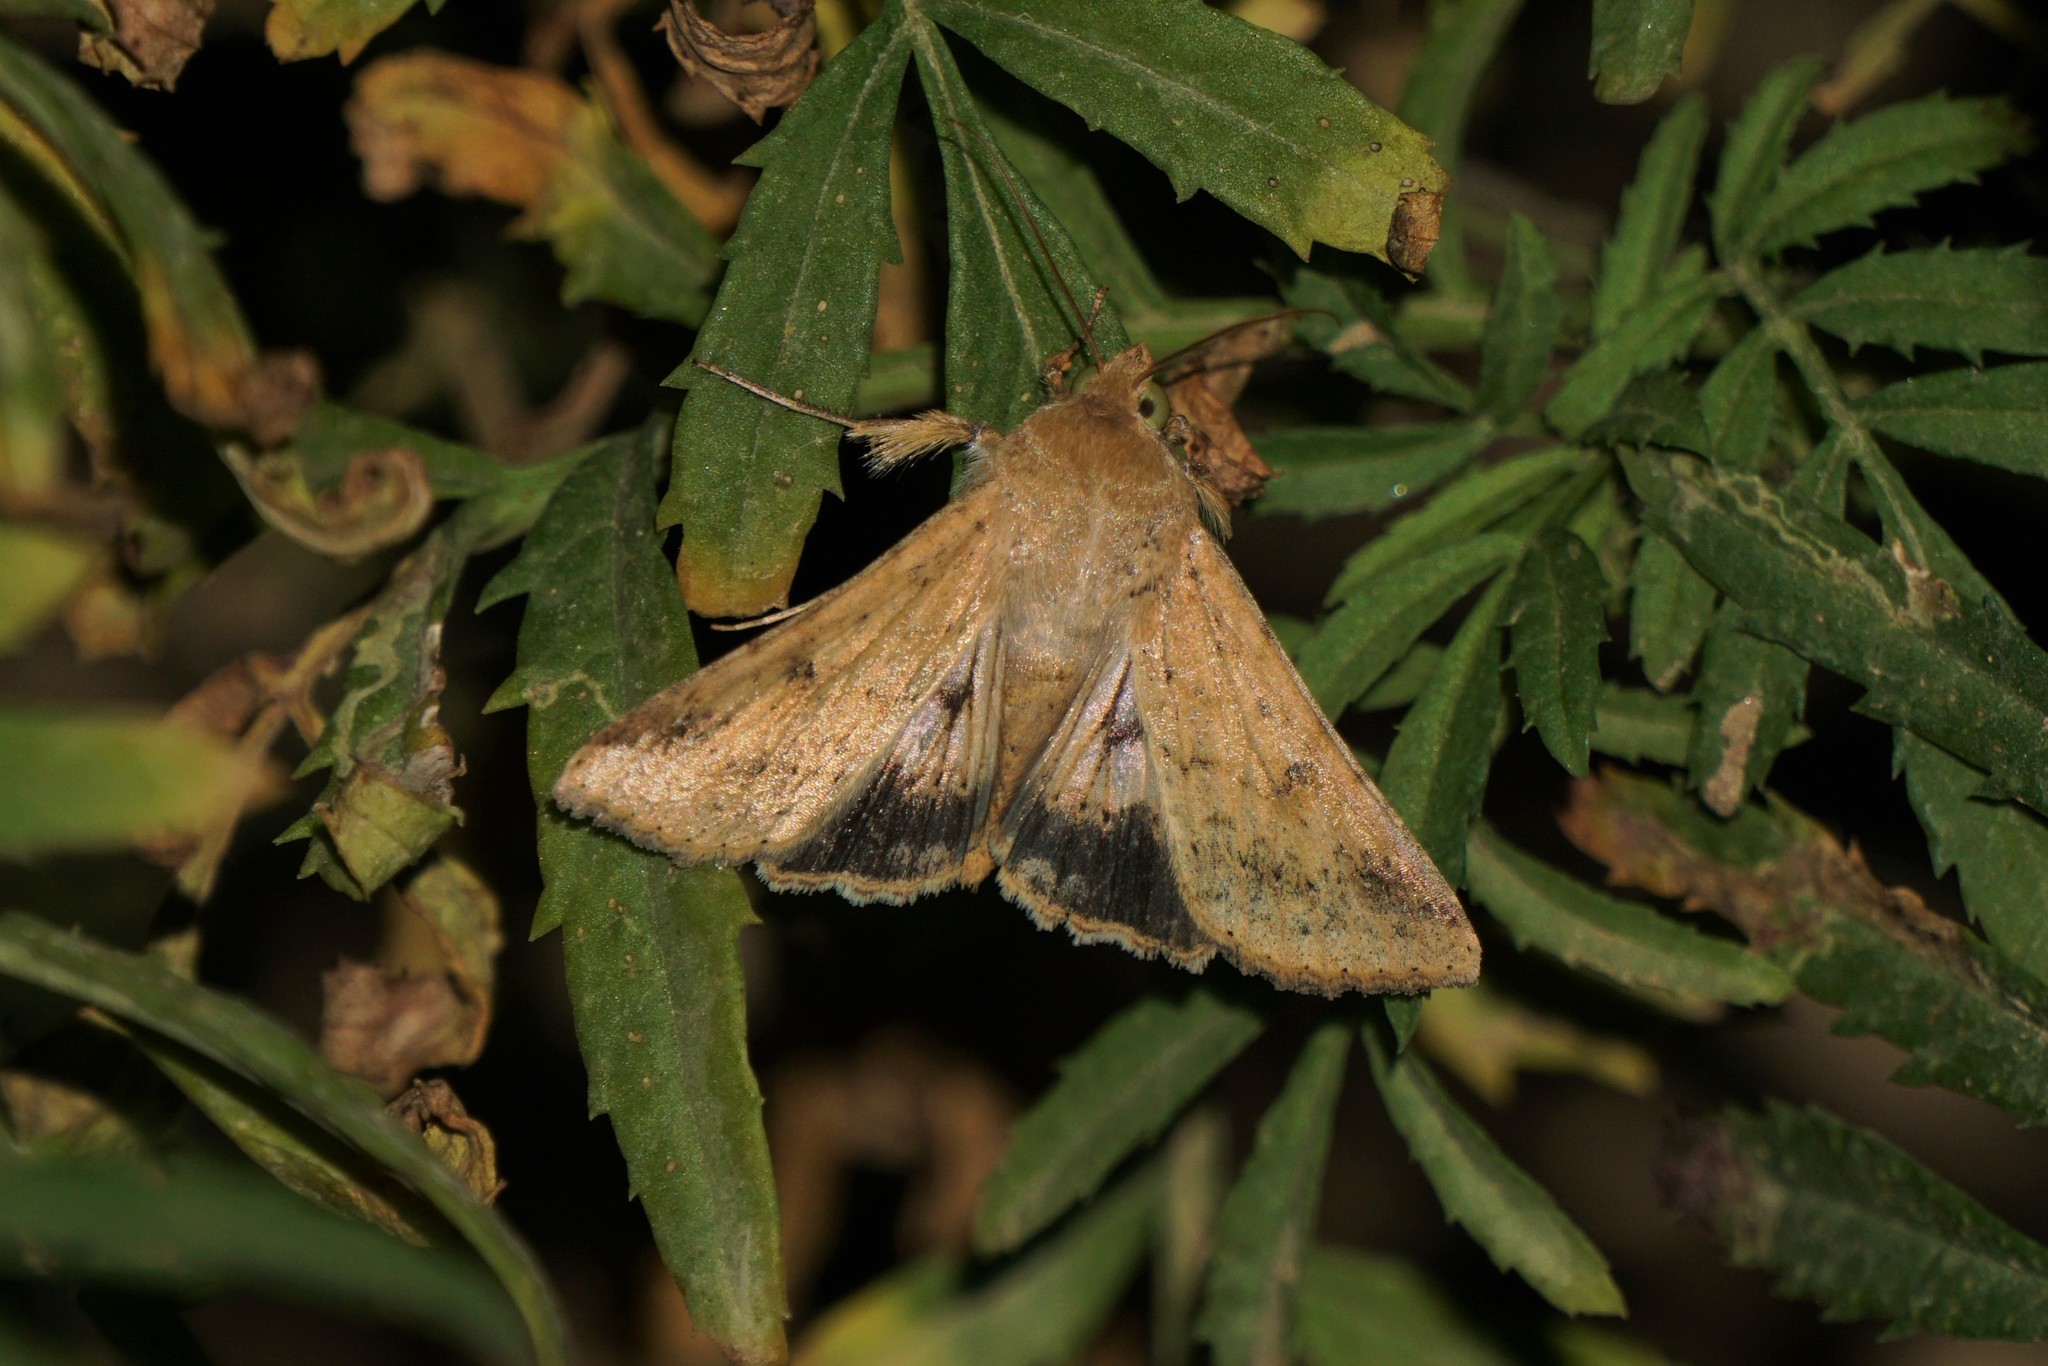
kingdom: Animalia
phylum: Arthropoda
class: Insecta
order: Lepidoptera
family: Noctuidae
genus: Helicoverpa
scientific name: Helicoverpa armigera
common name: Cotton bollworm
